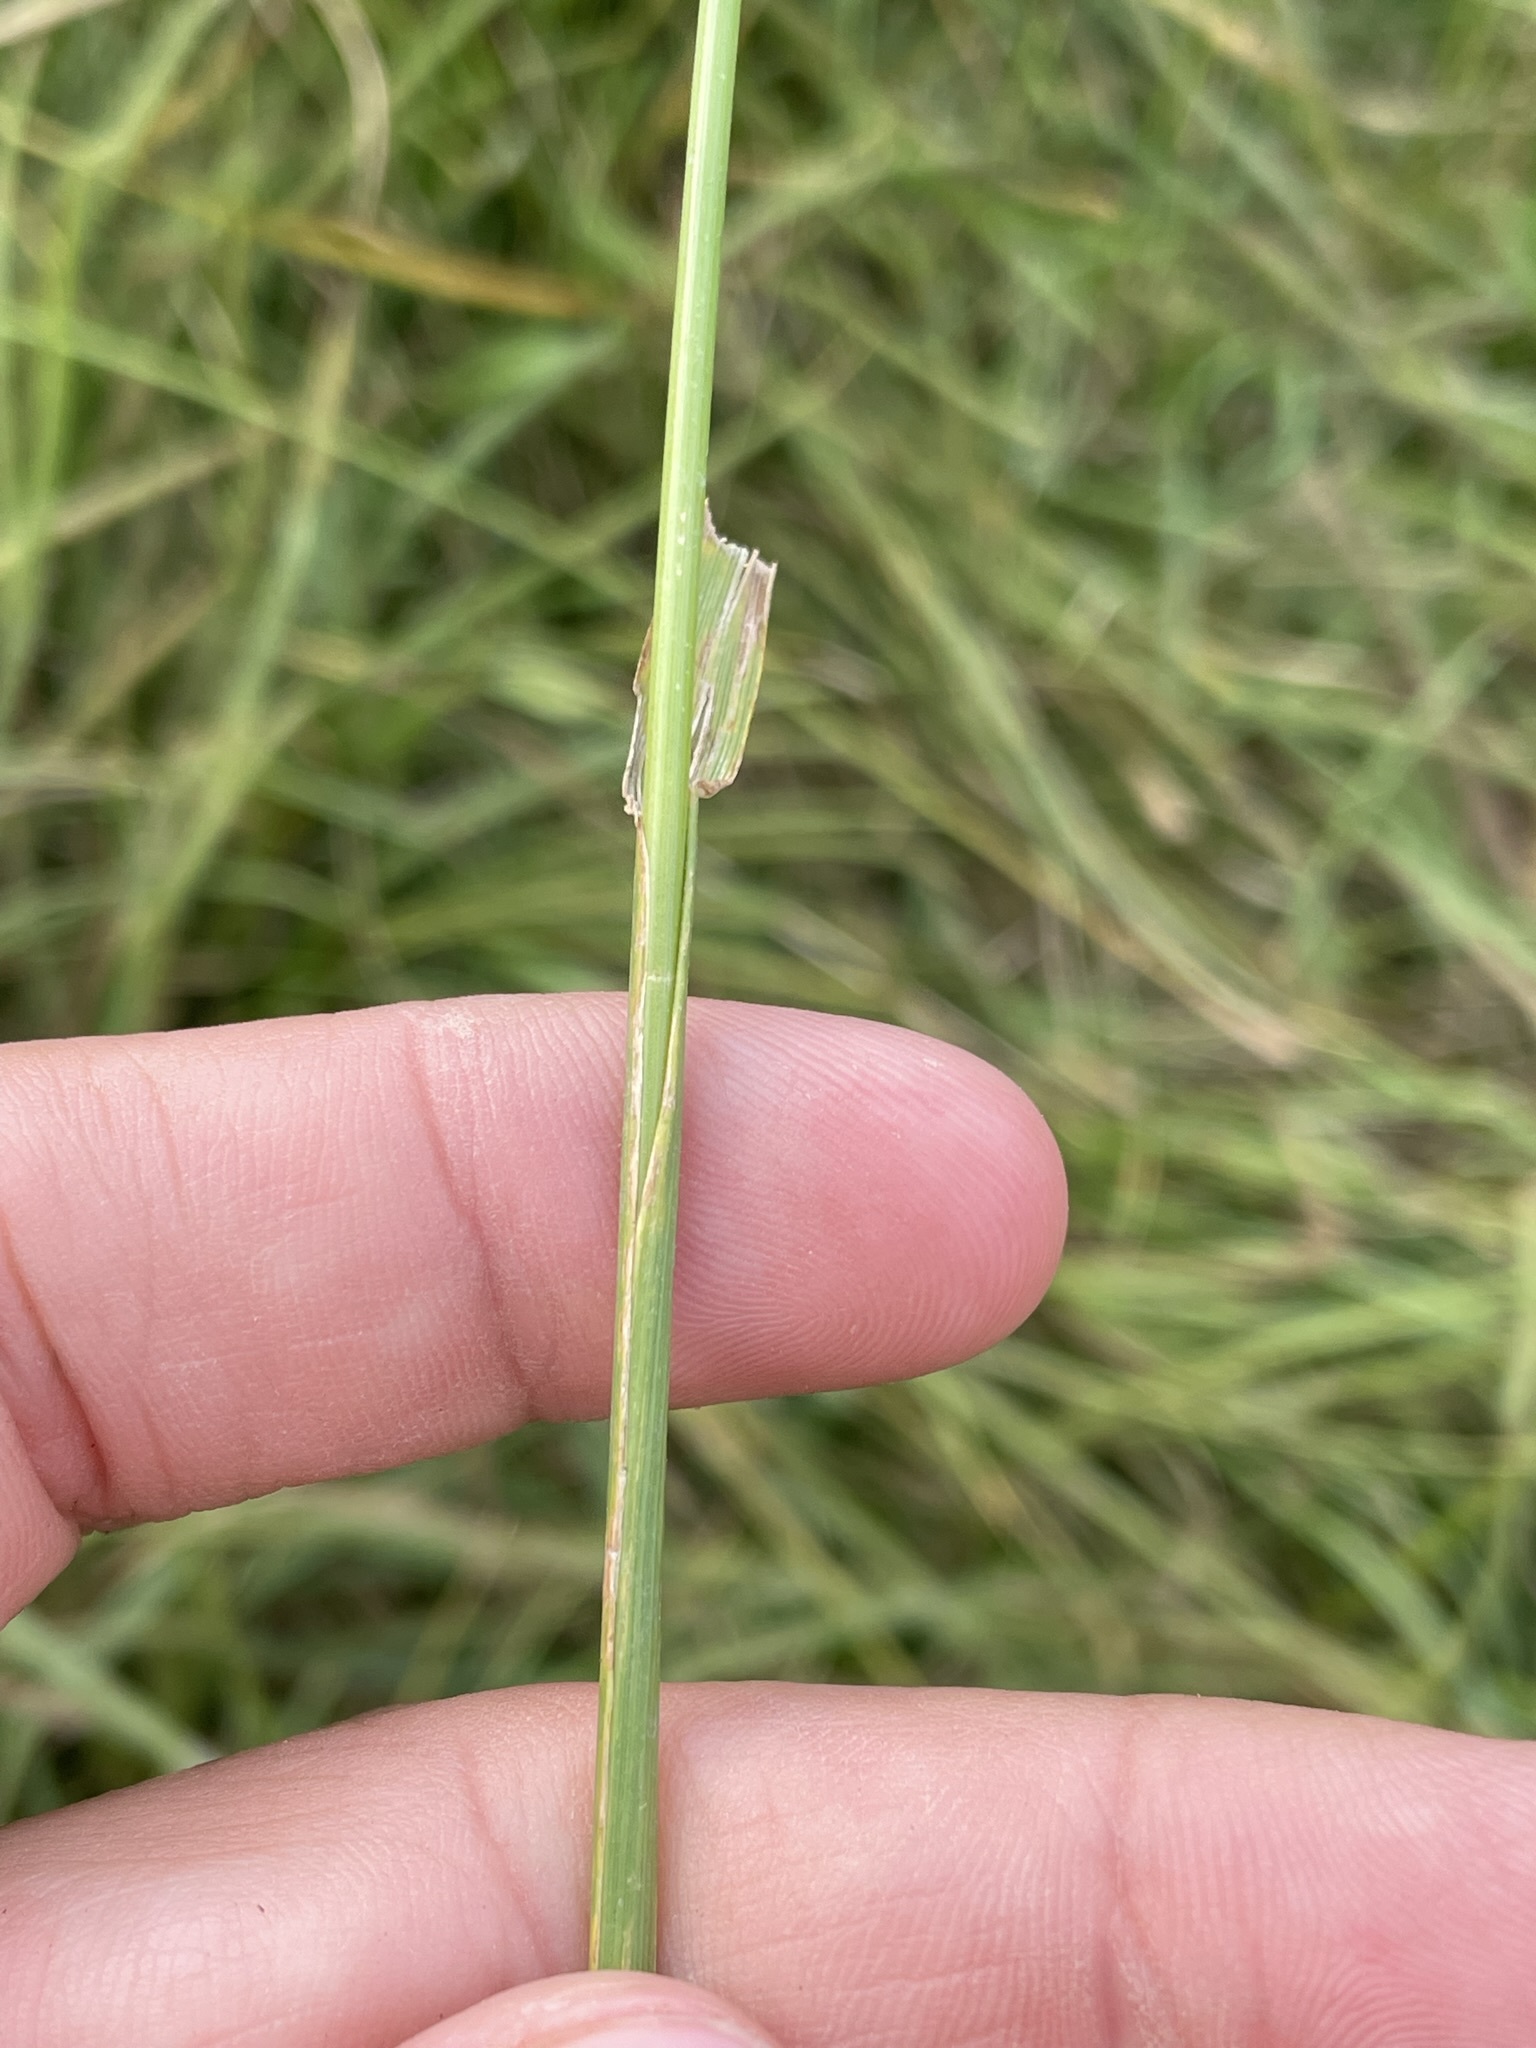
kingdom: Plantae
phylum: Tracheophyta
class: Liliopsida
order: Poales
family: Poaceae
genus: Lolium
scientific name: Lolium arundinaceum
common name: Reed fescue
